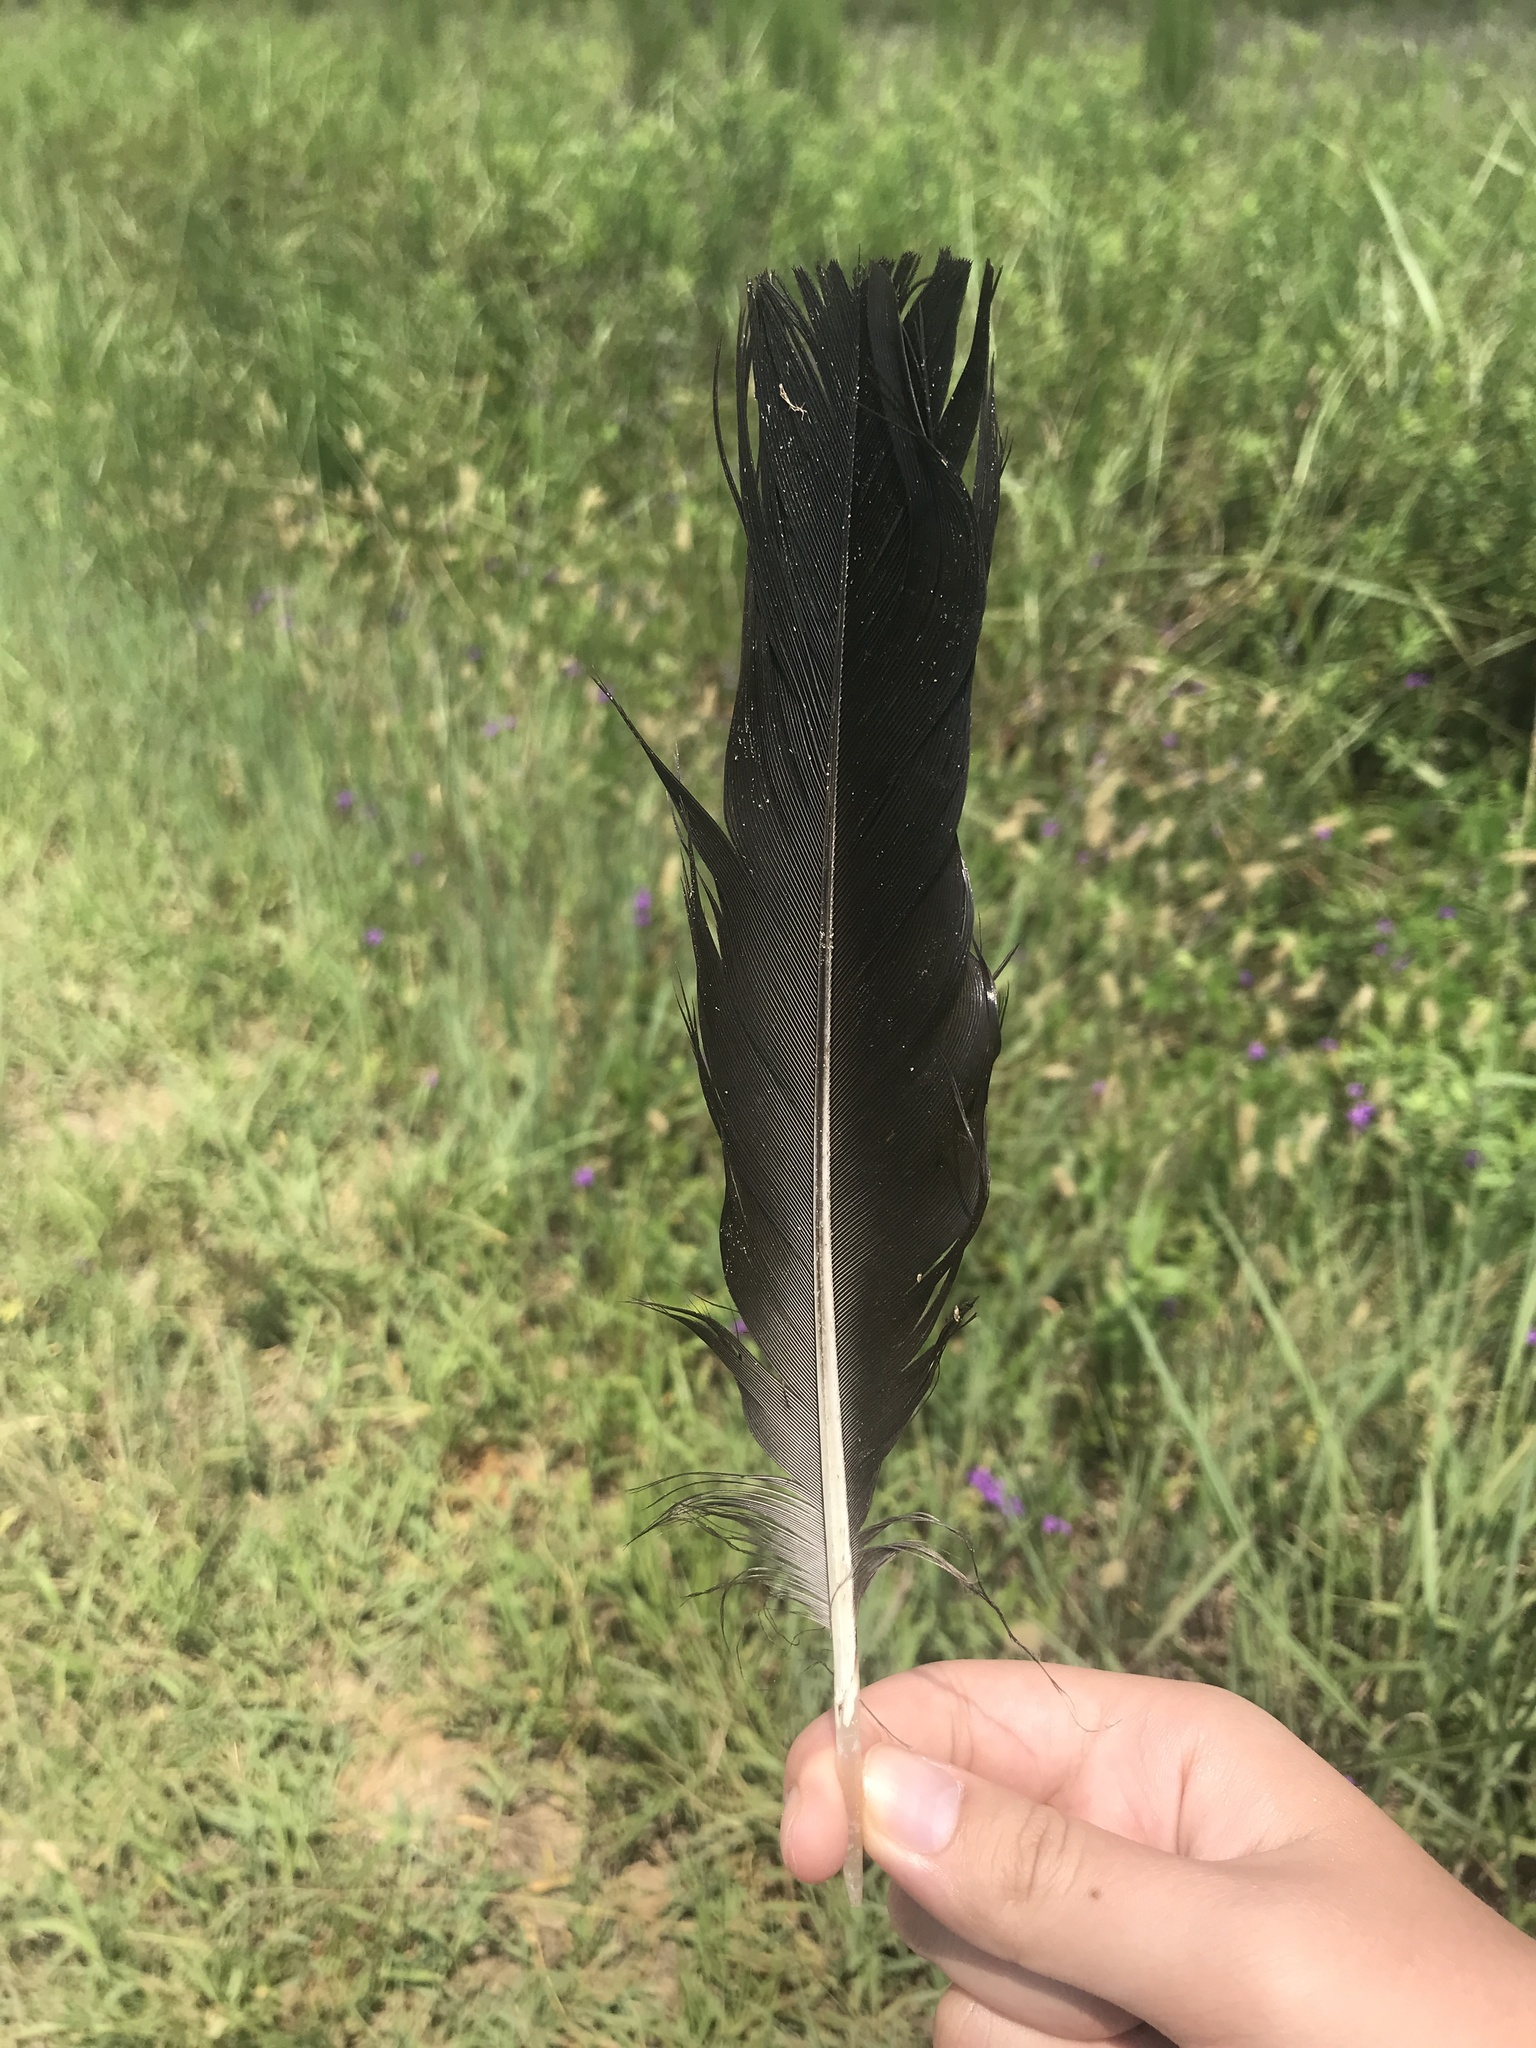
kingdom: Animalia
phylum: Chordata
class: Aves
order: Accipitriformes
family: Cathartidae
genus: Coragyps
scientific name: Coragyps atratus
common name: Black vulture
